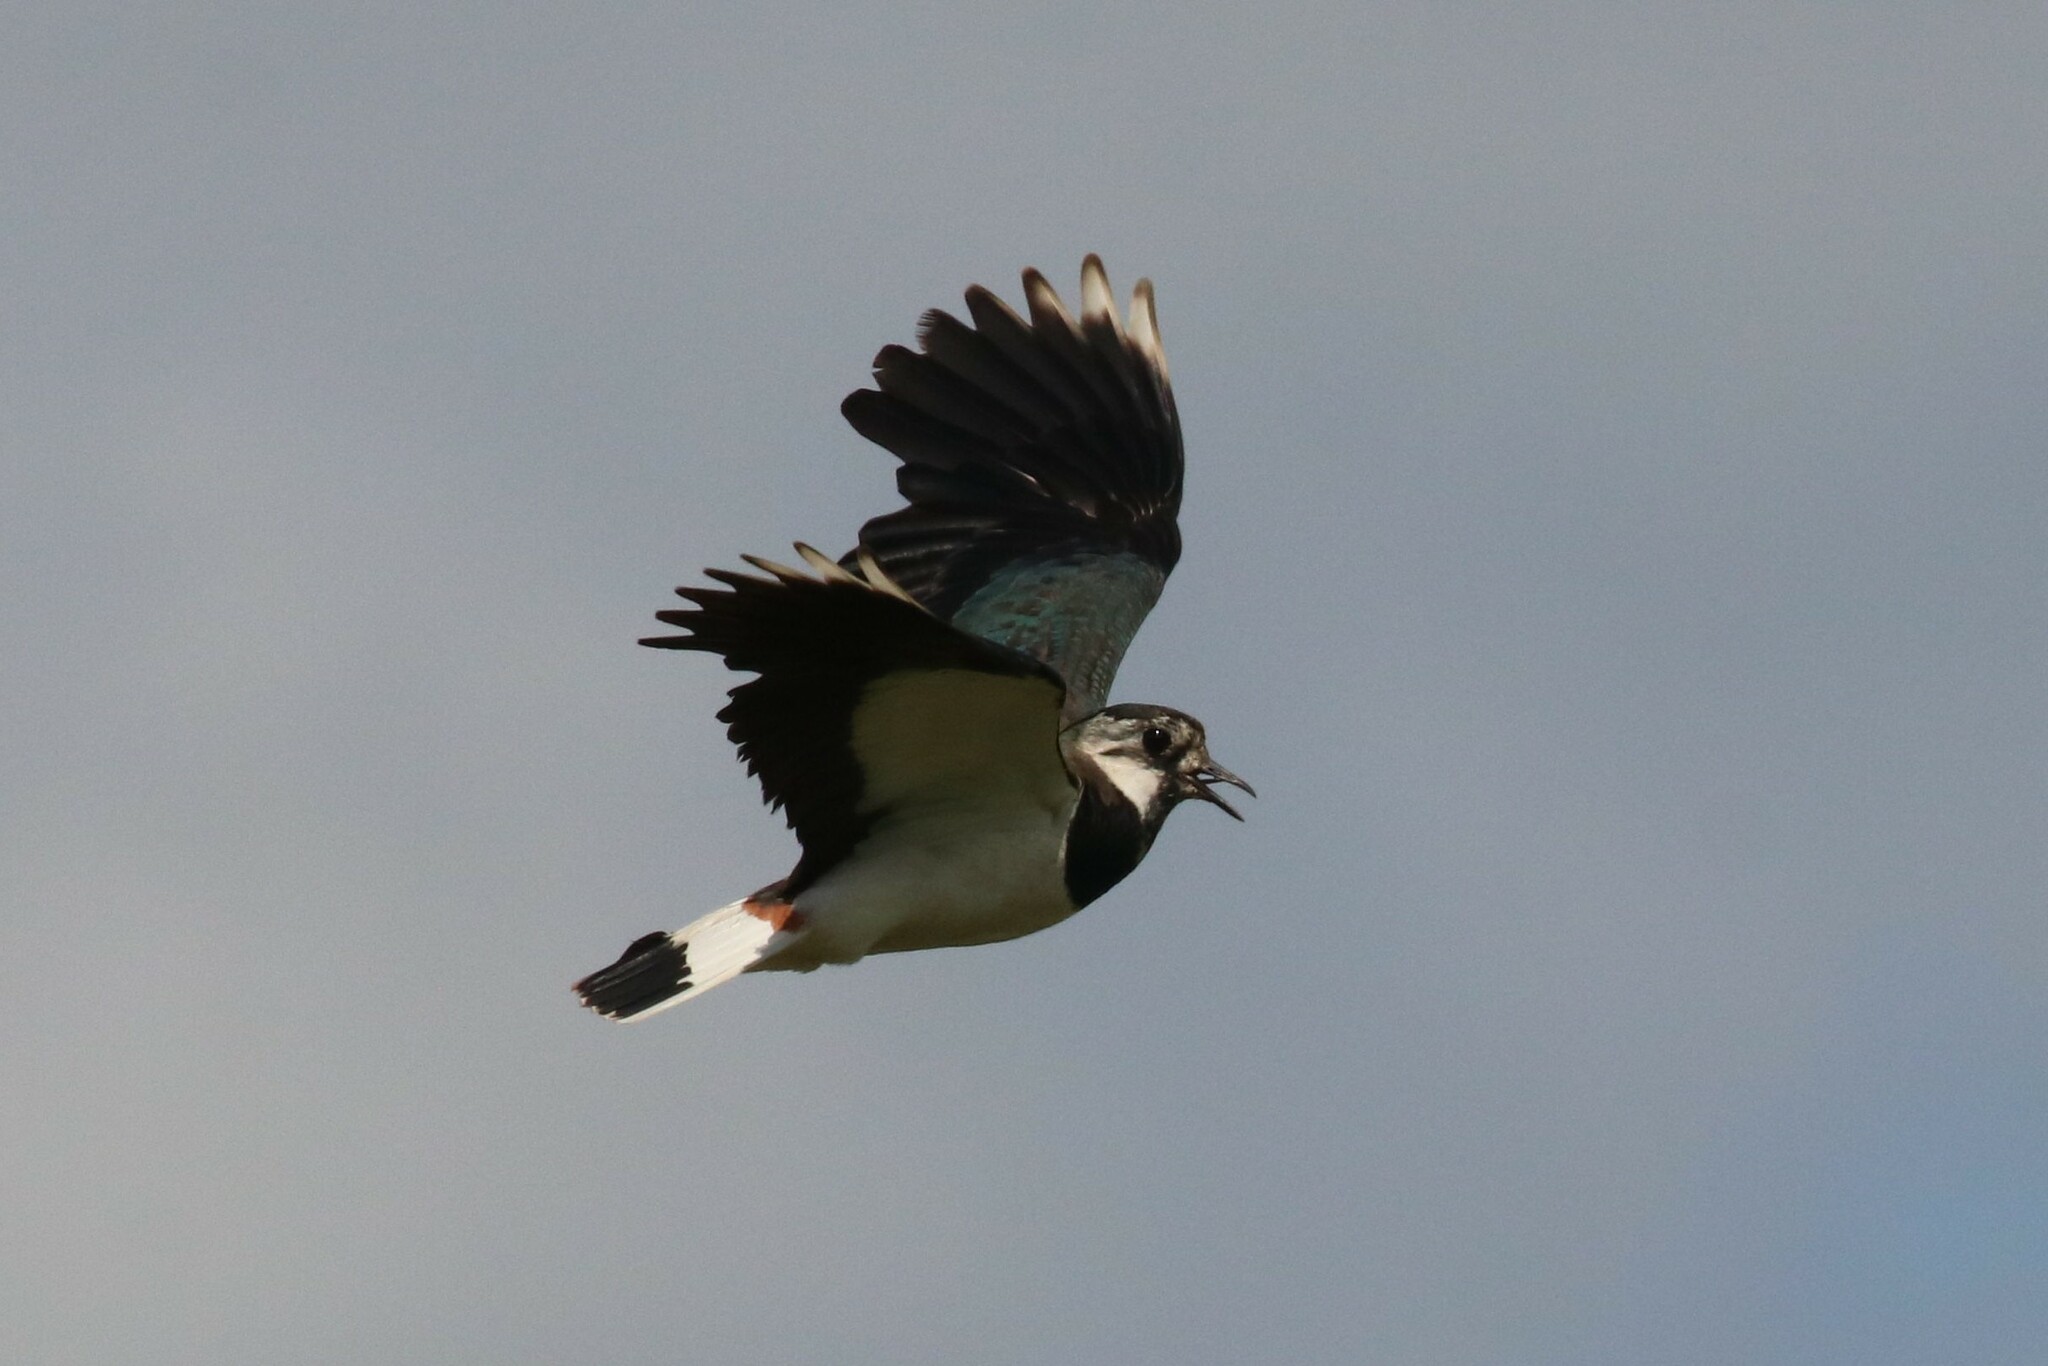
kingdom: Animalia
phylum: Chordata
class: Aves
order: Charadriiformes
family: Charadriidae
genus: Vanellus
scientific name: Vanellus vanellus
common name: Northern lapwing
